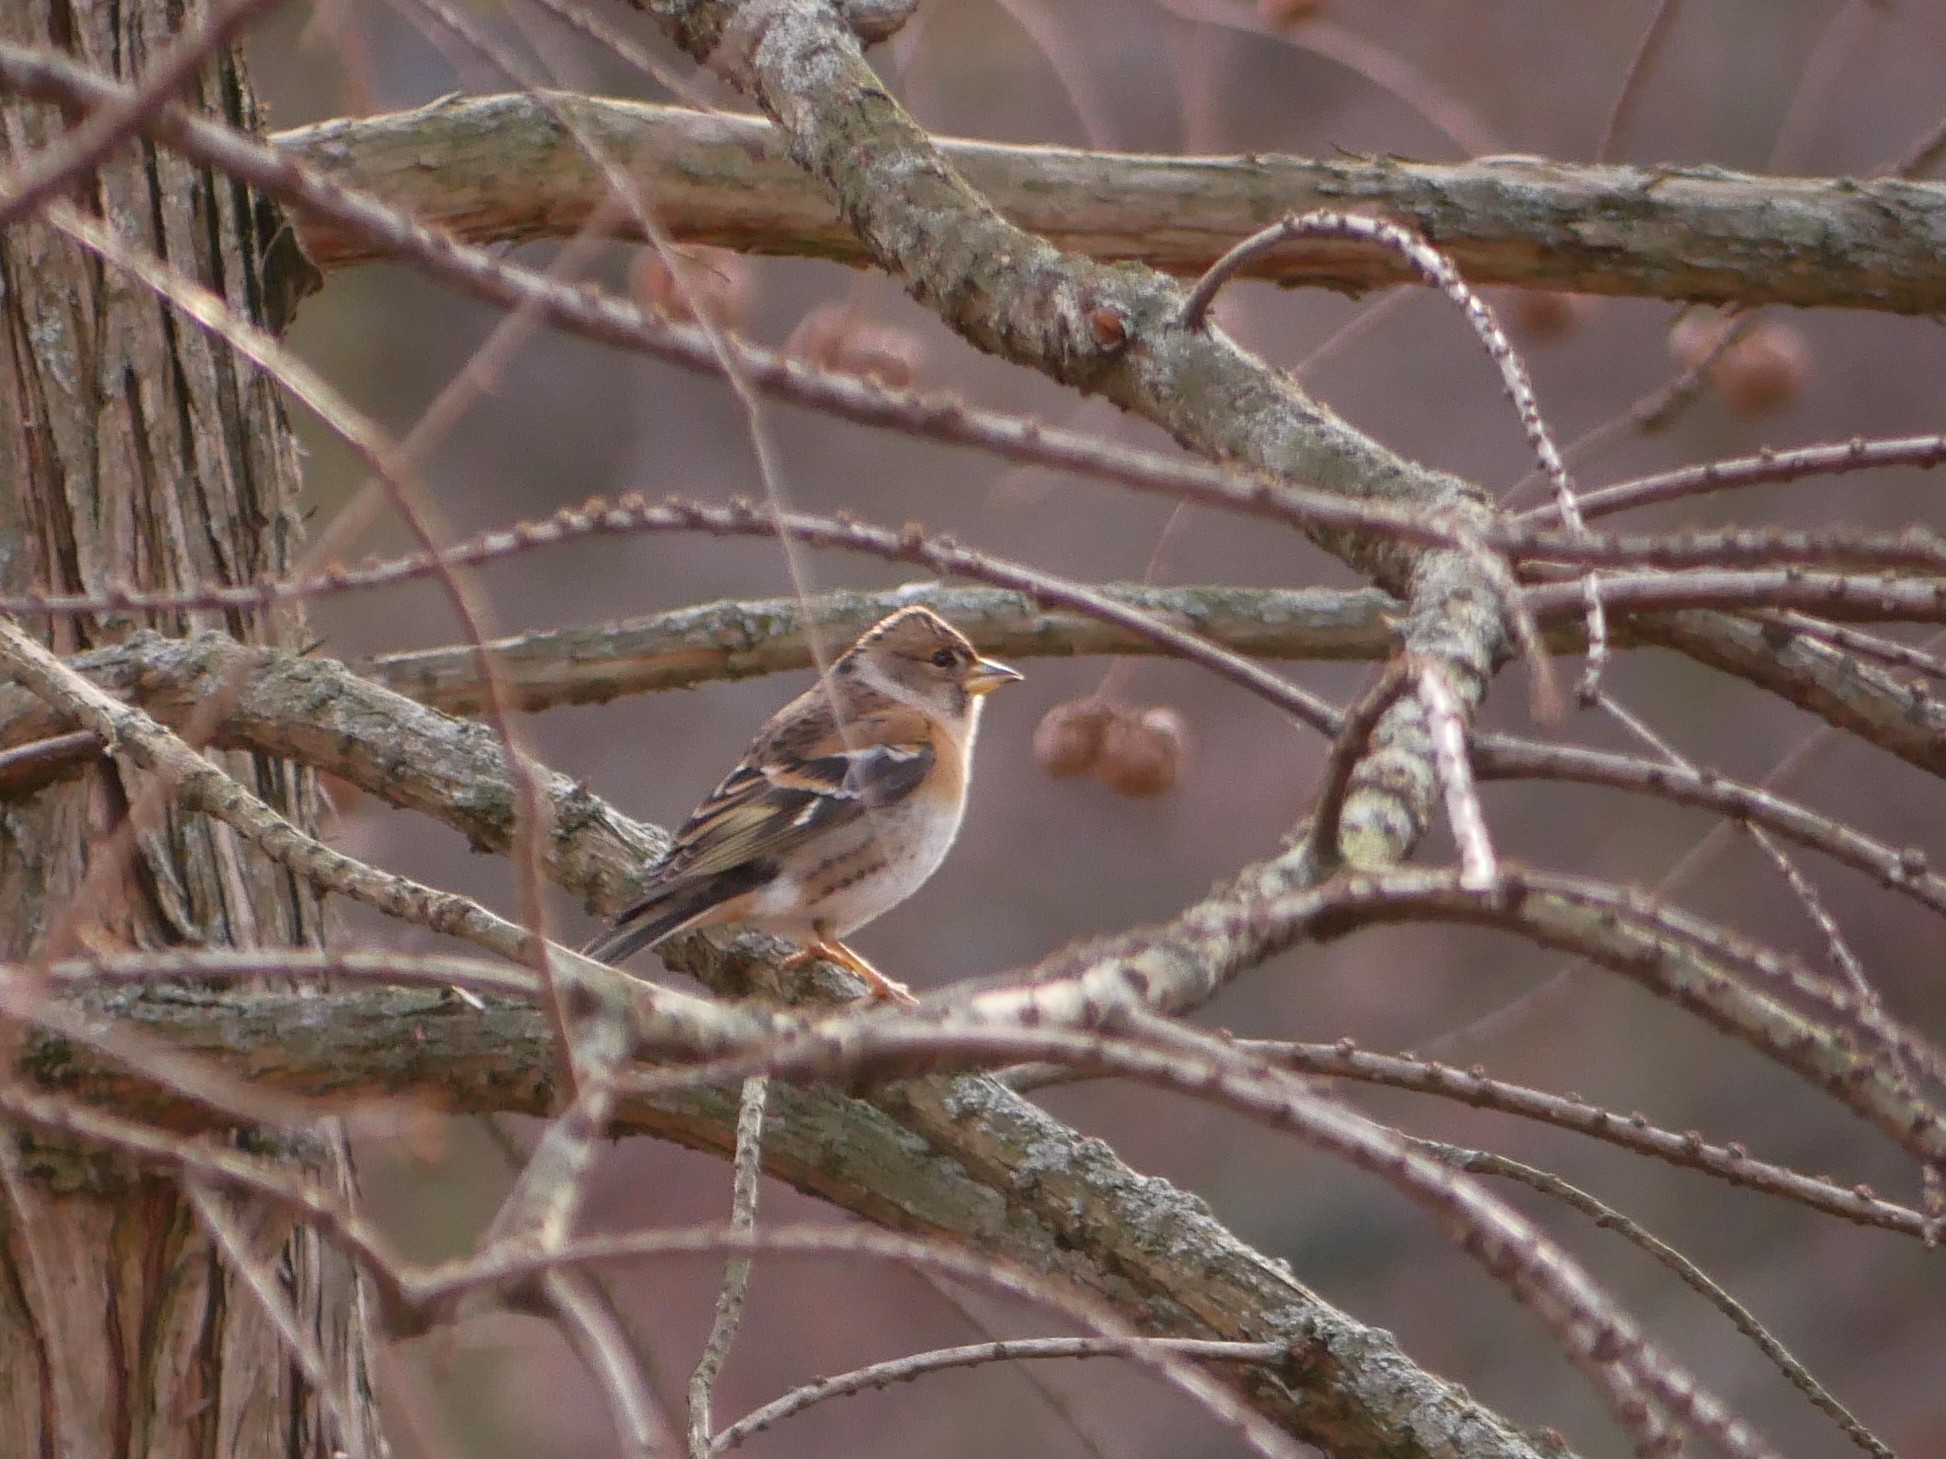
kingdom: Animalia
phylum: Chordata
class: Aves
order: Passeriformes
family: Fringillidae
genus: Fringilla
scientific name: Fringilla montifringilla
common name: Brambling
